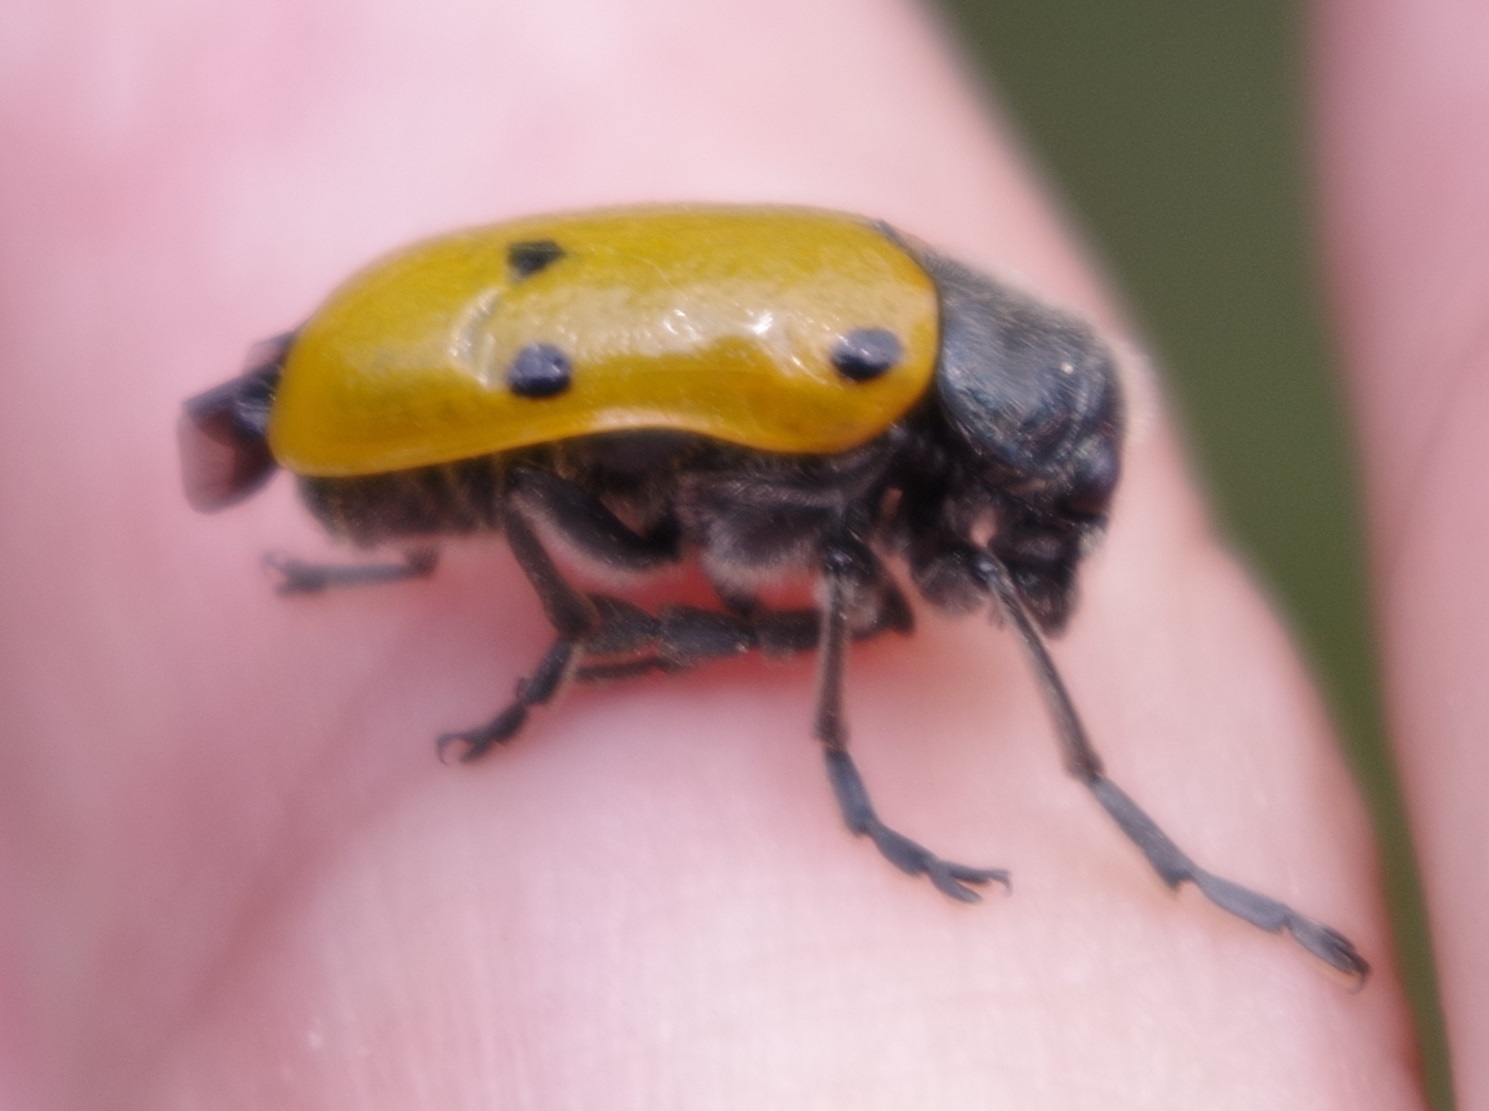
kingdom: Animalia
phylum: Arthropoda
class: Insecta
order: Coleoptera
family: Chrysomelidae
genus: Lachnaia
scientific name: Lachnaia sexpunctata
